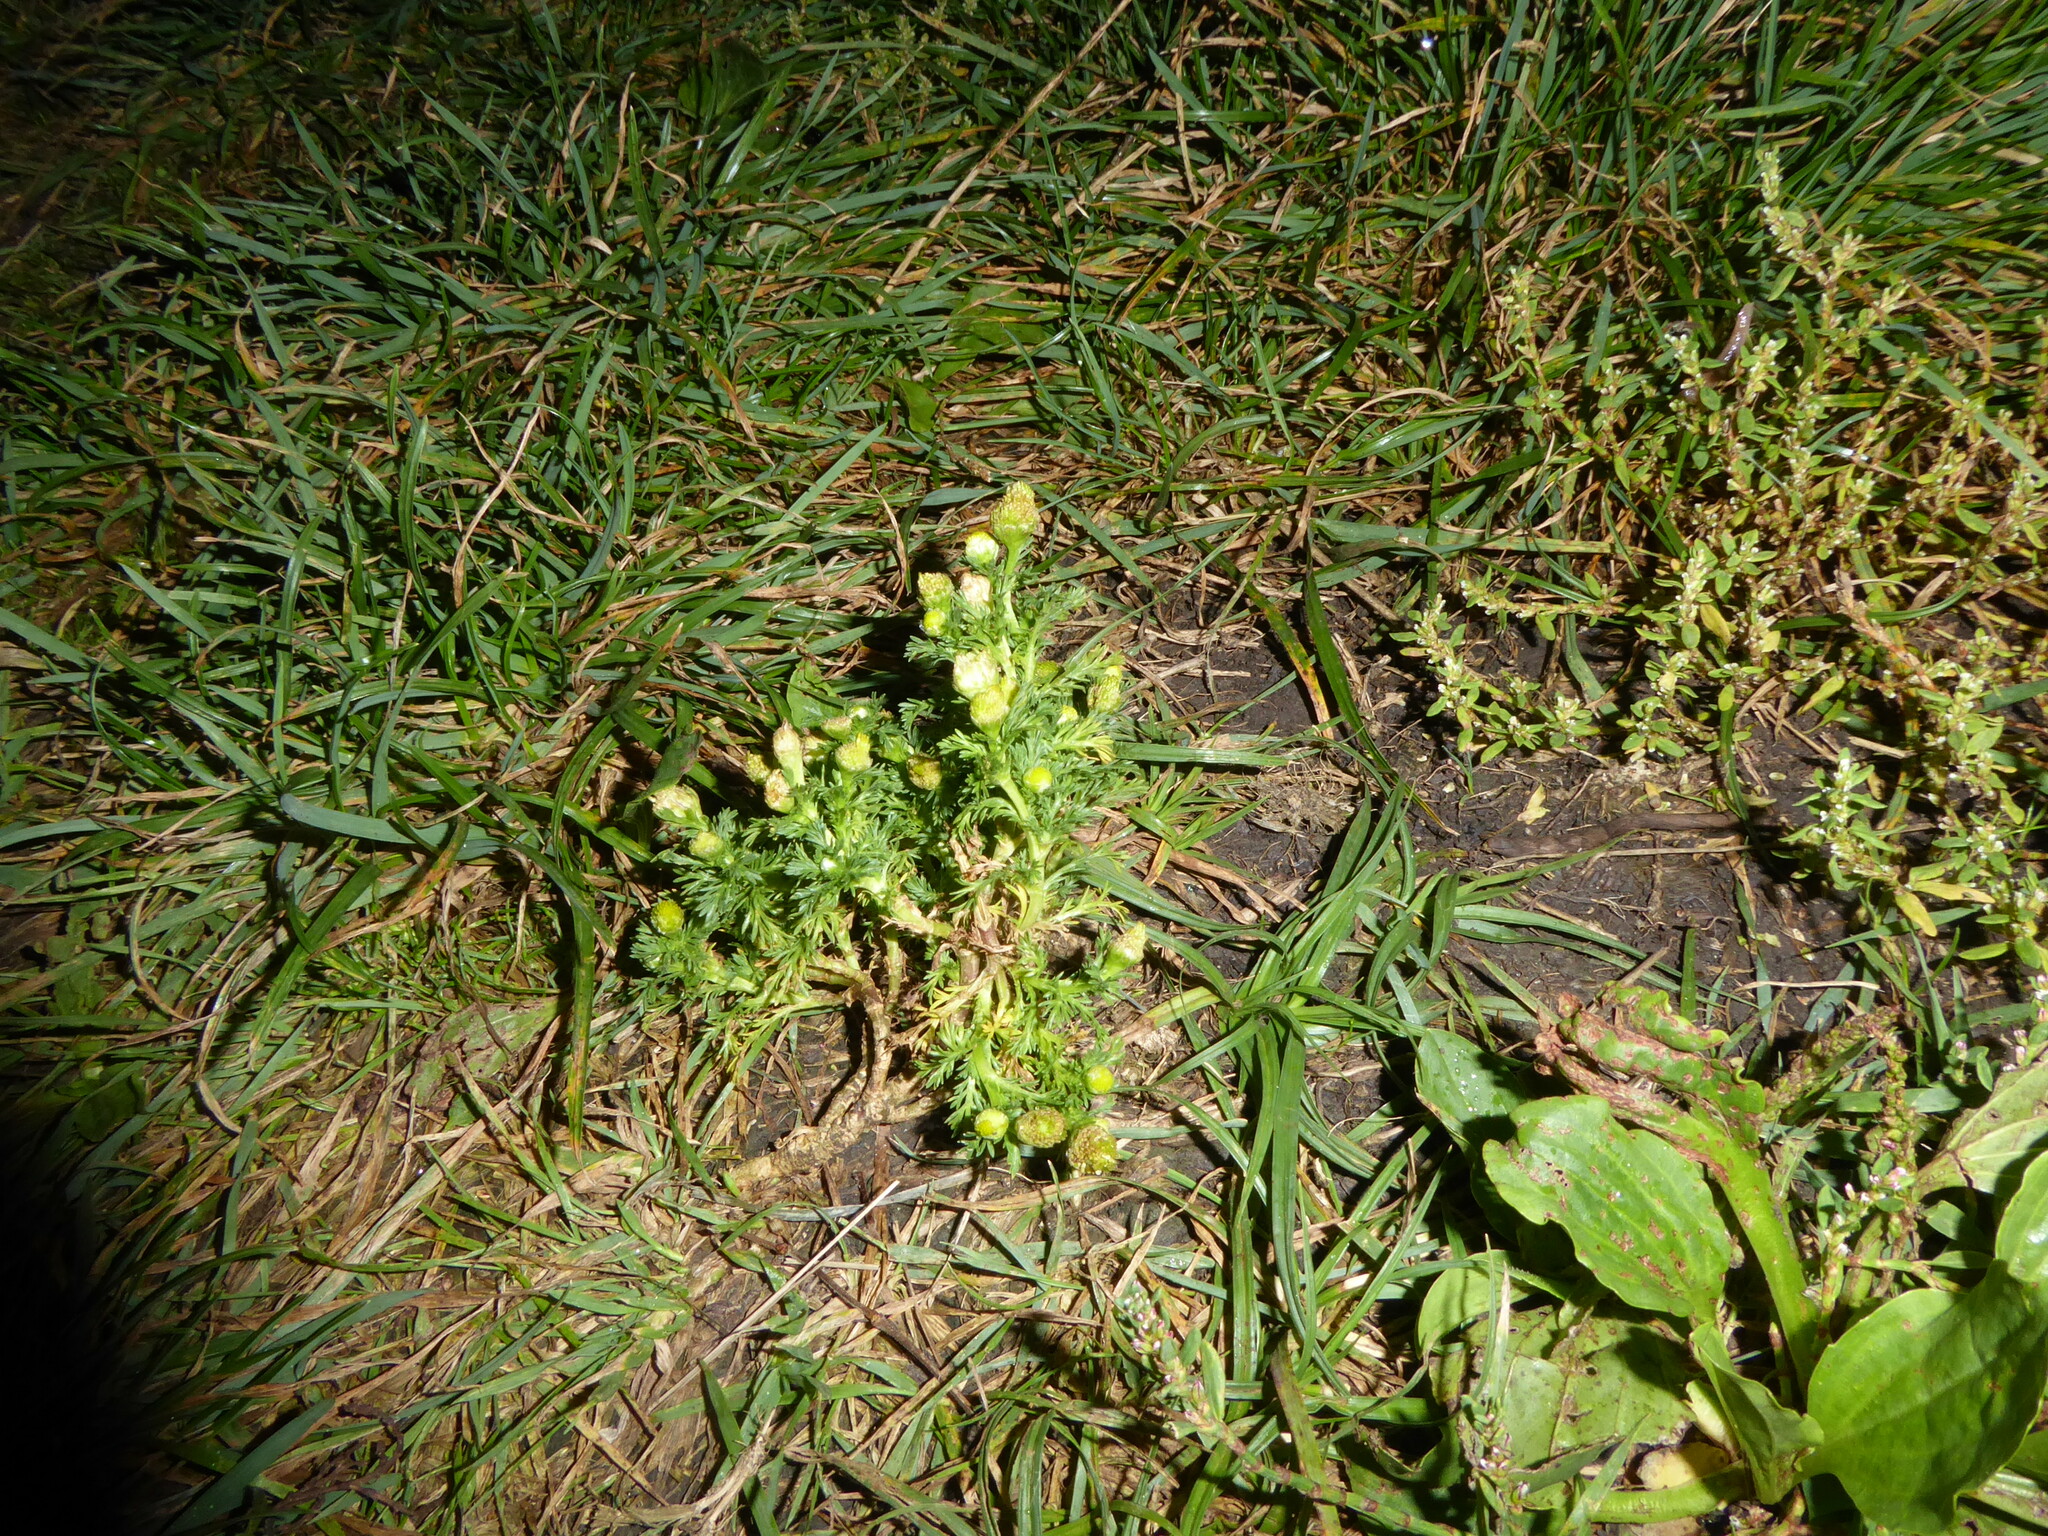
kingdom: Plantae
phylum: Tracheophyta
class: Magnoliopsida
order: Asterales
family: Asteraceae
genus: Matricaria
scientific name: Matricaria discoidea
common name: Disc mayweed
